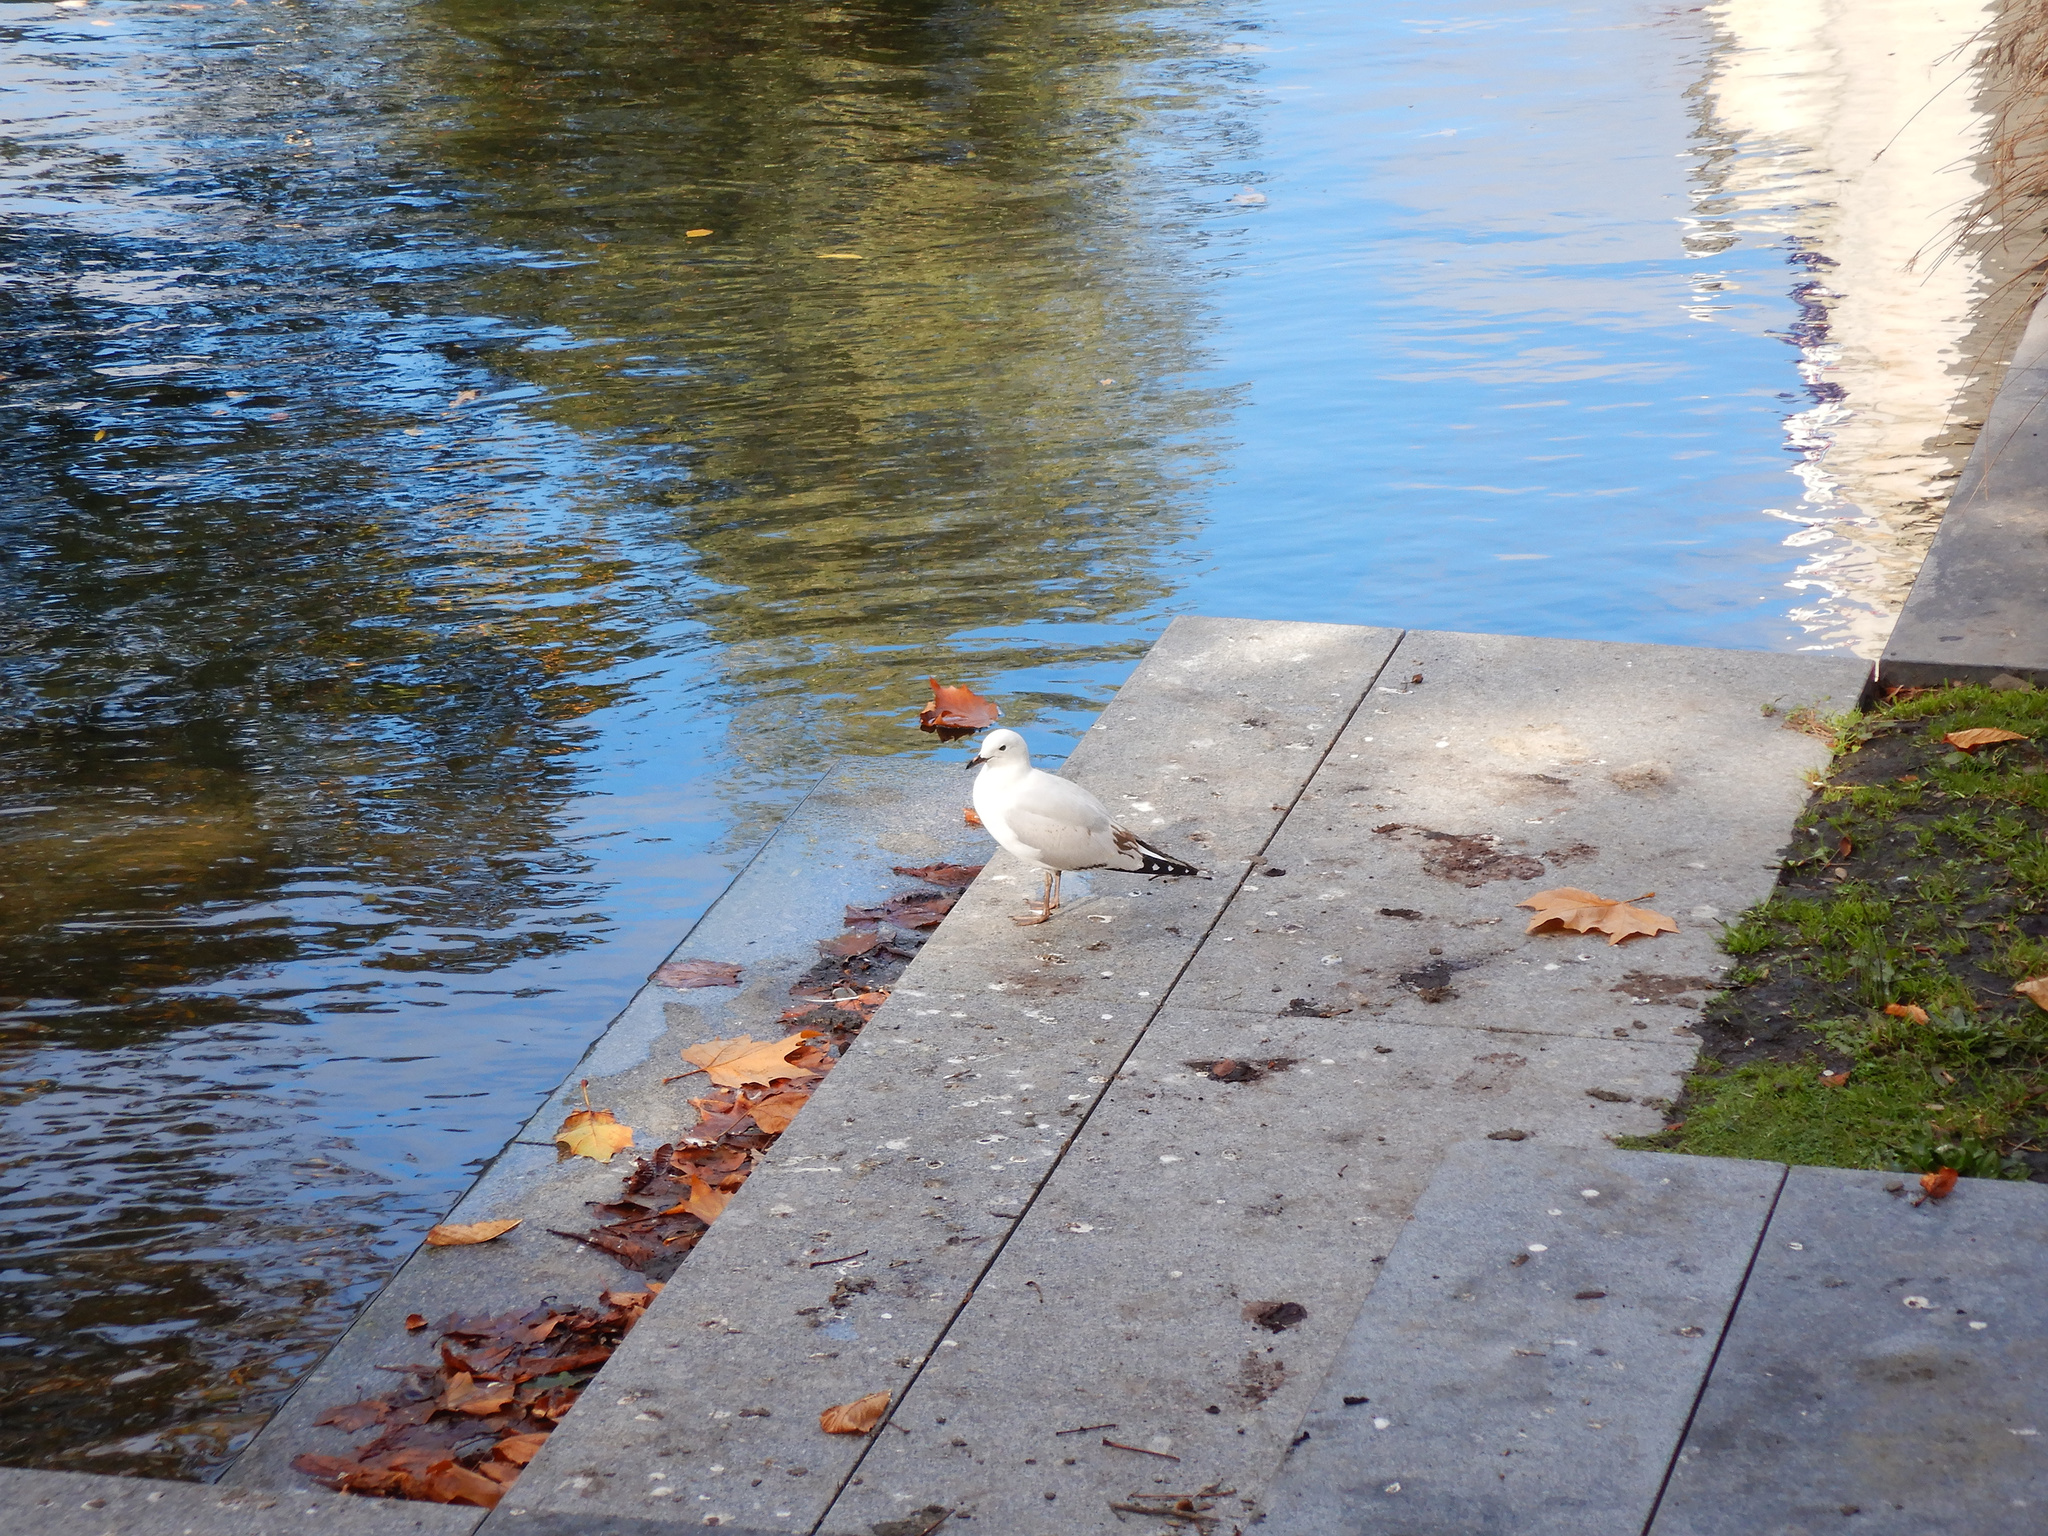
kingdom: Animalia
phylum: Chordata
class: Aves
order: Charadriiformes
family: Laridae
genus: Chroicocephalus
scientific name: Chroicocephalus novaehollandiae
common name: Silver gull
